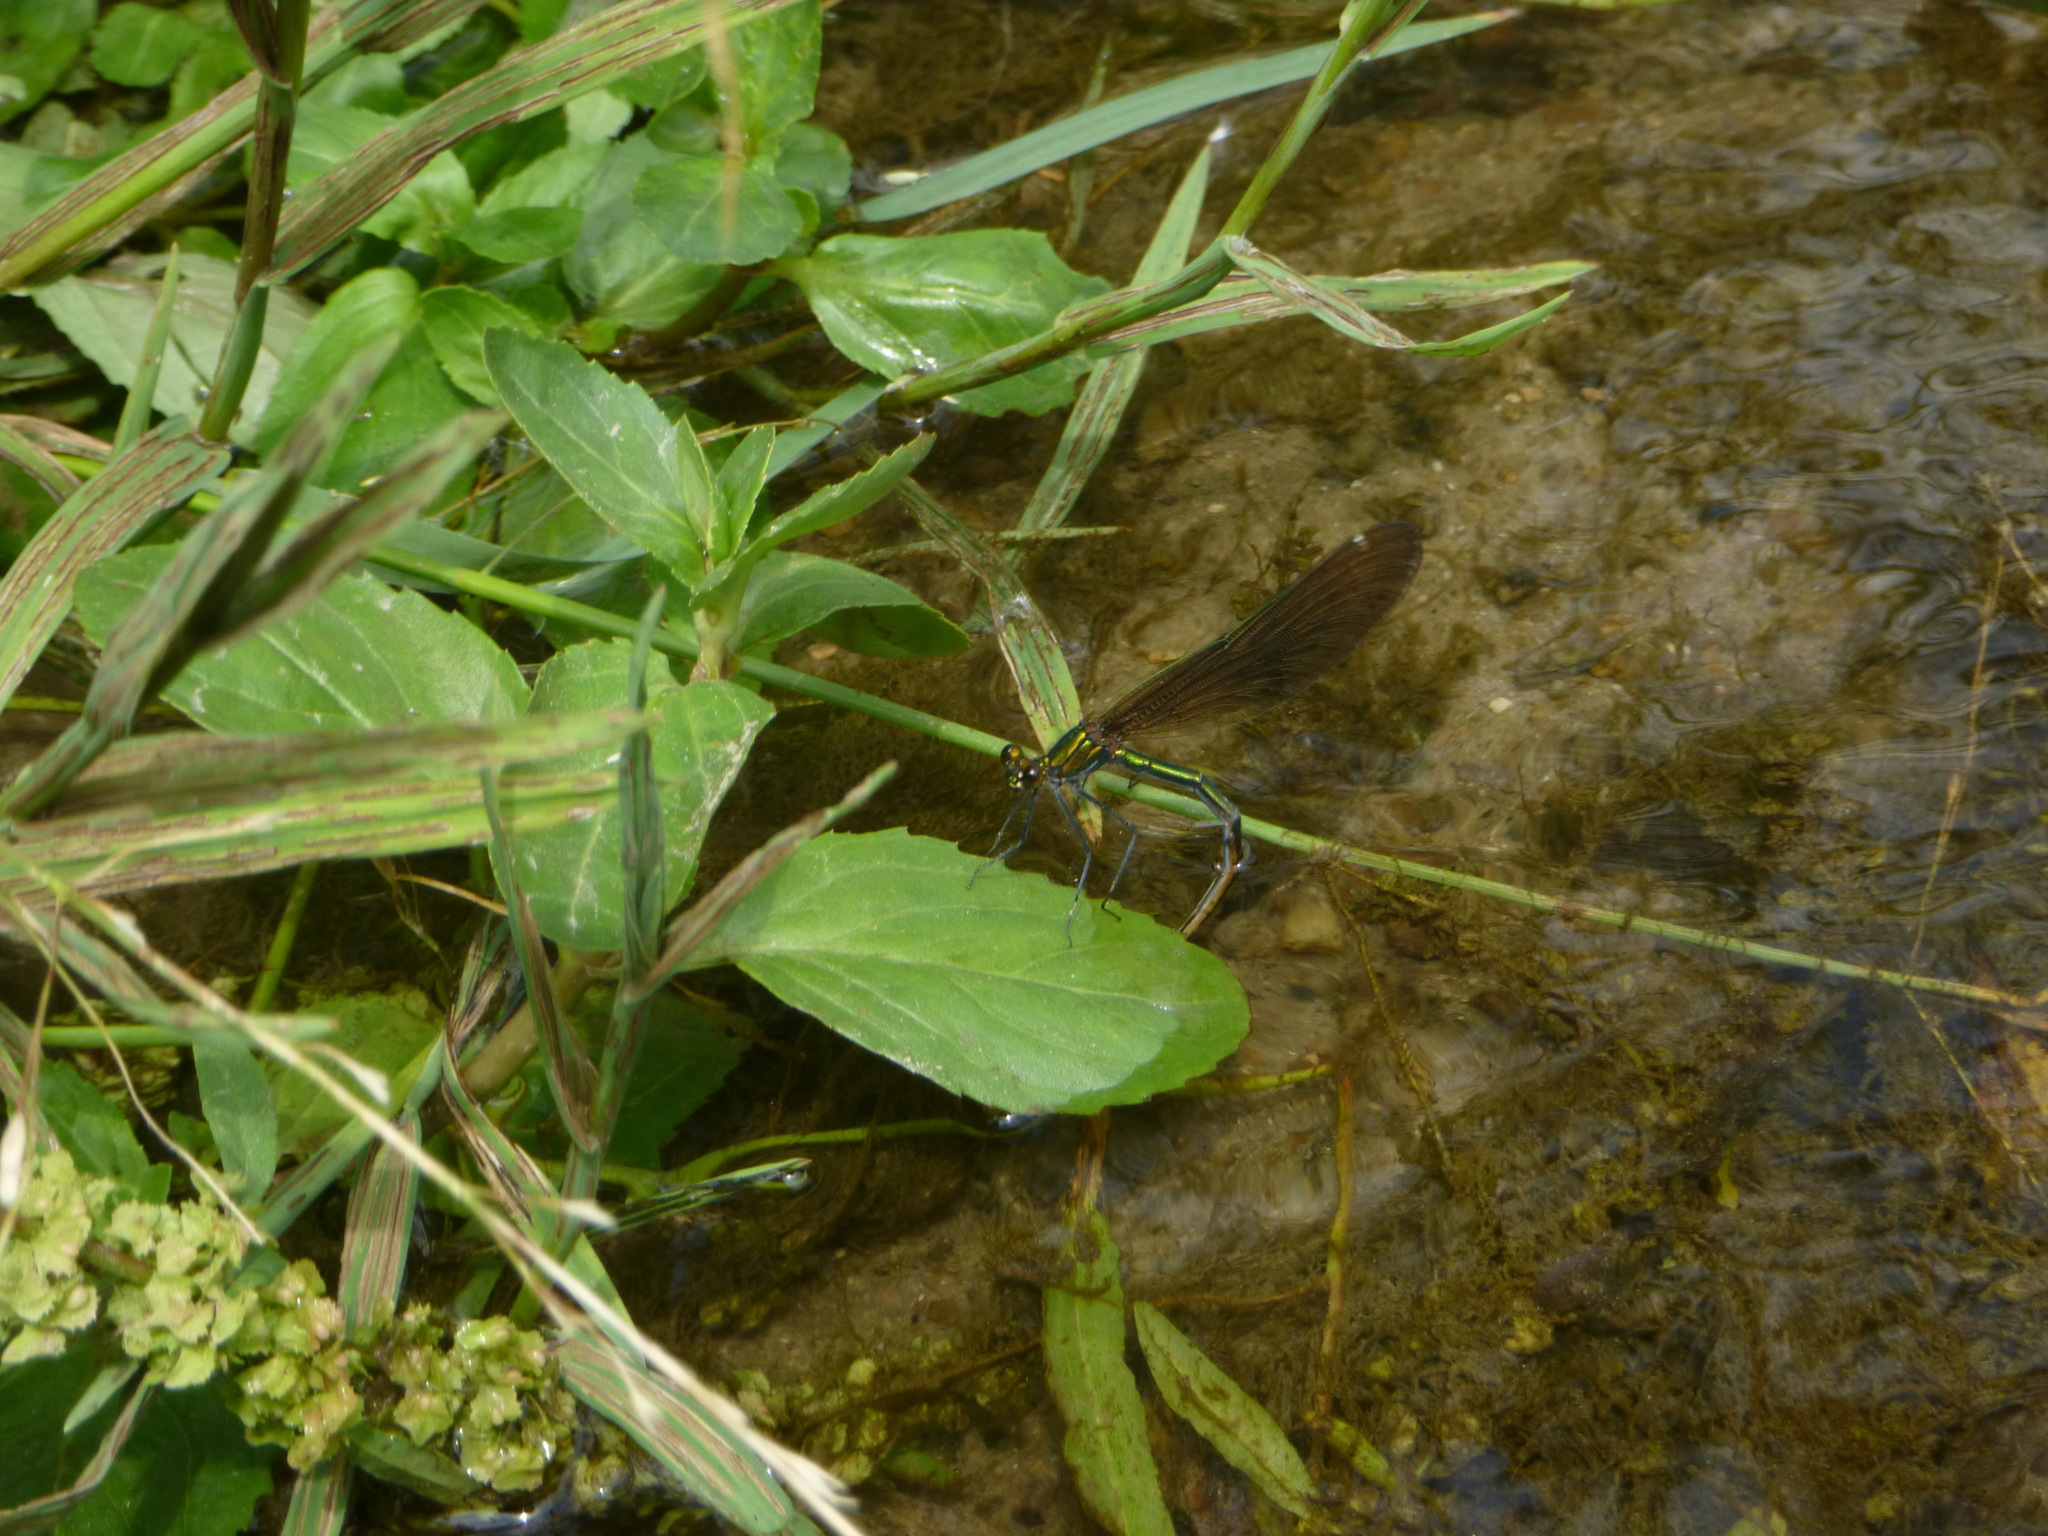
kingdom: Animalia
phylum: Arthropoda
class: Insecta
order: Odonata
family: Calopterygidae
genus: Calopteryx
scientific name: Calopteryx virgo
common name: Beautiful demoiselle
